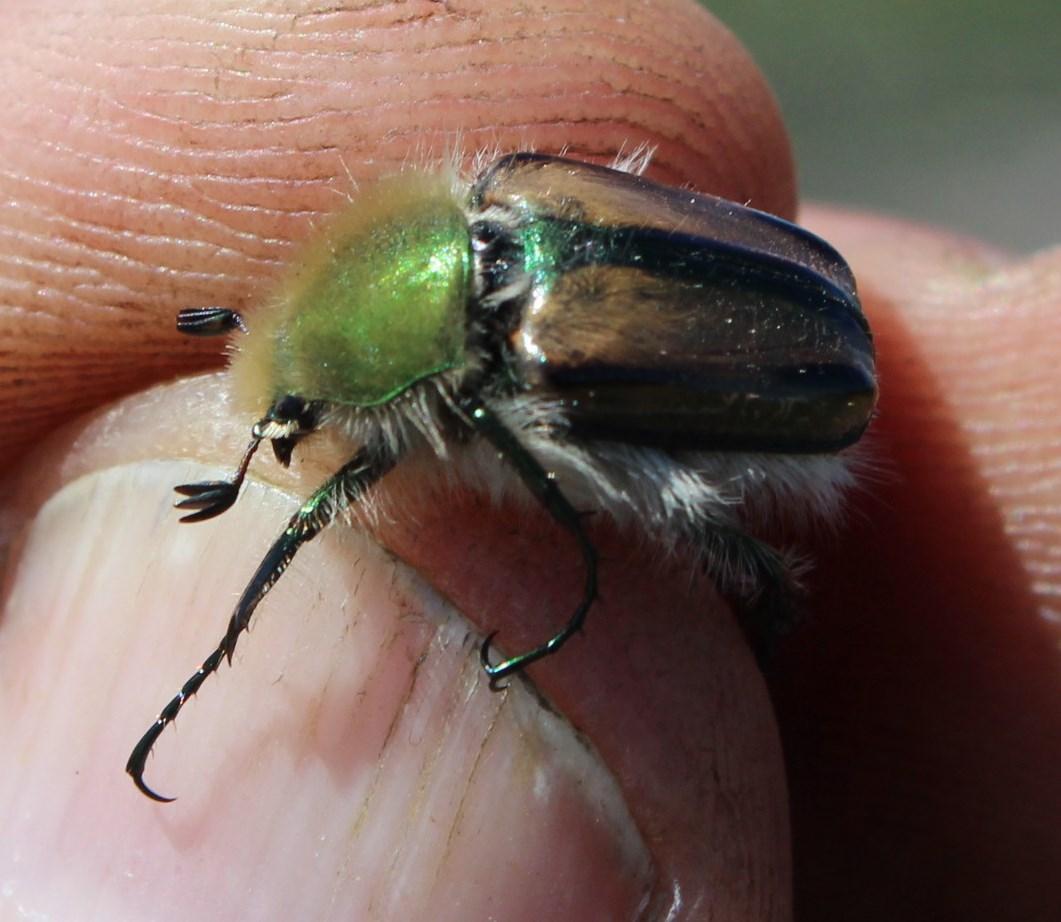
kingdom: Animalia
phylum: Arthropoda
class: Insecta
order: Coleoptera
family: Scarabaeidae
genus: Stegopterus
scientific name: Stegopterus vittatus
